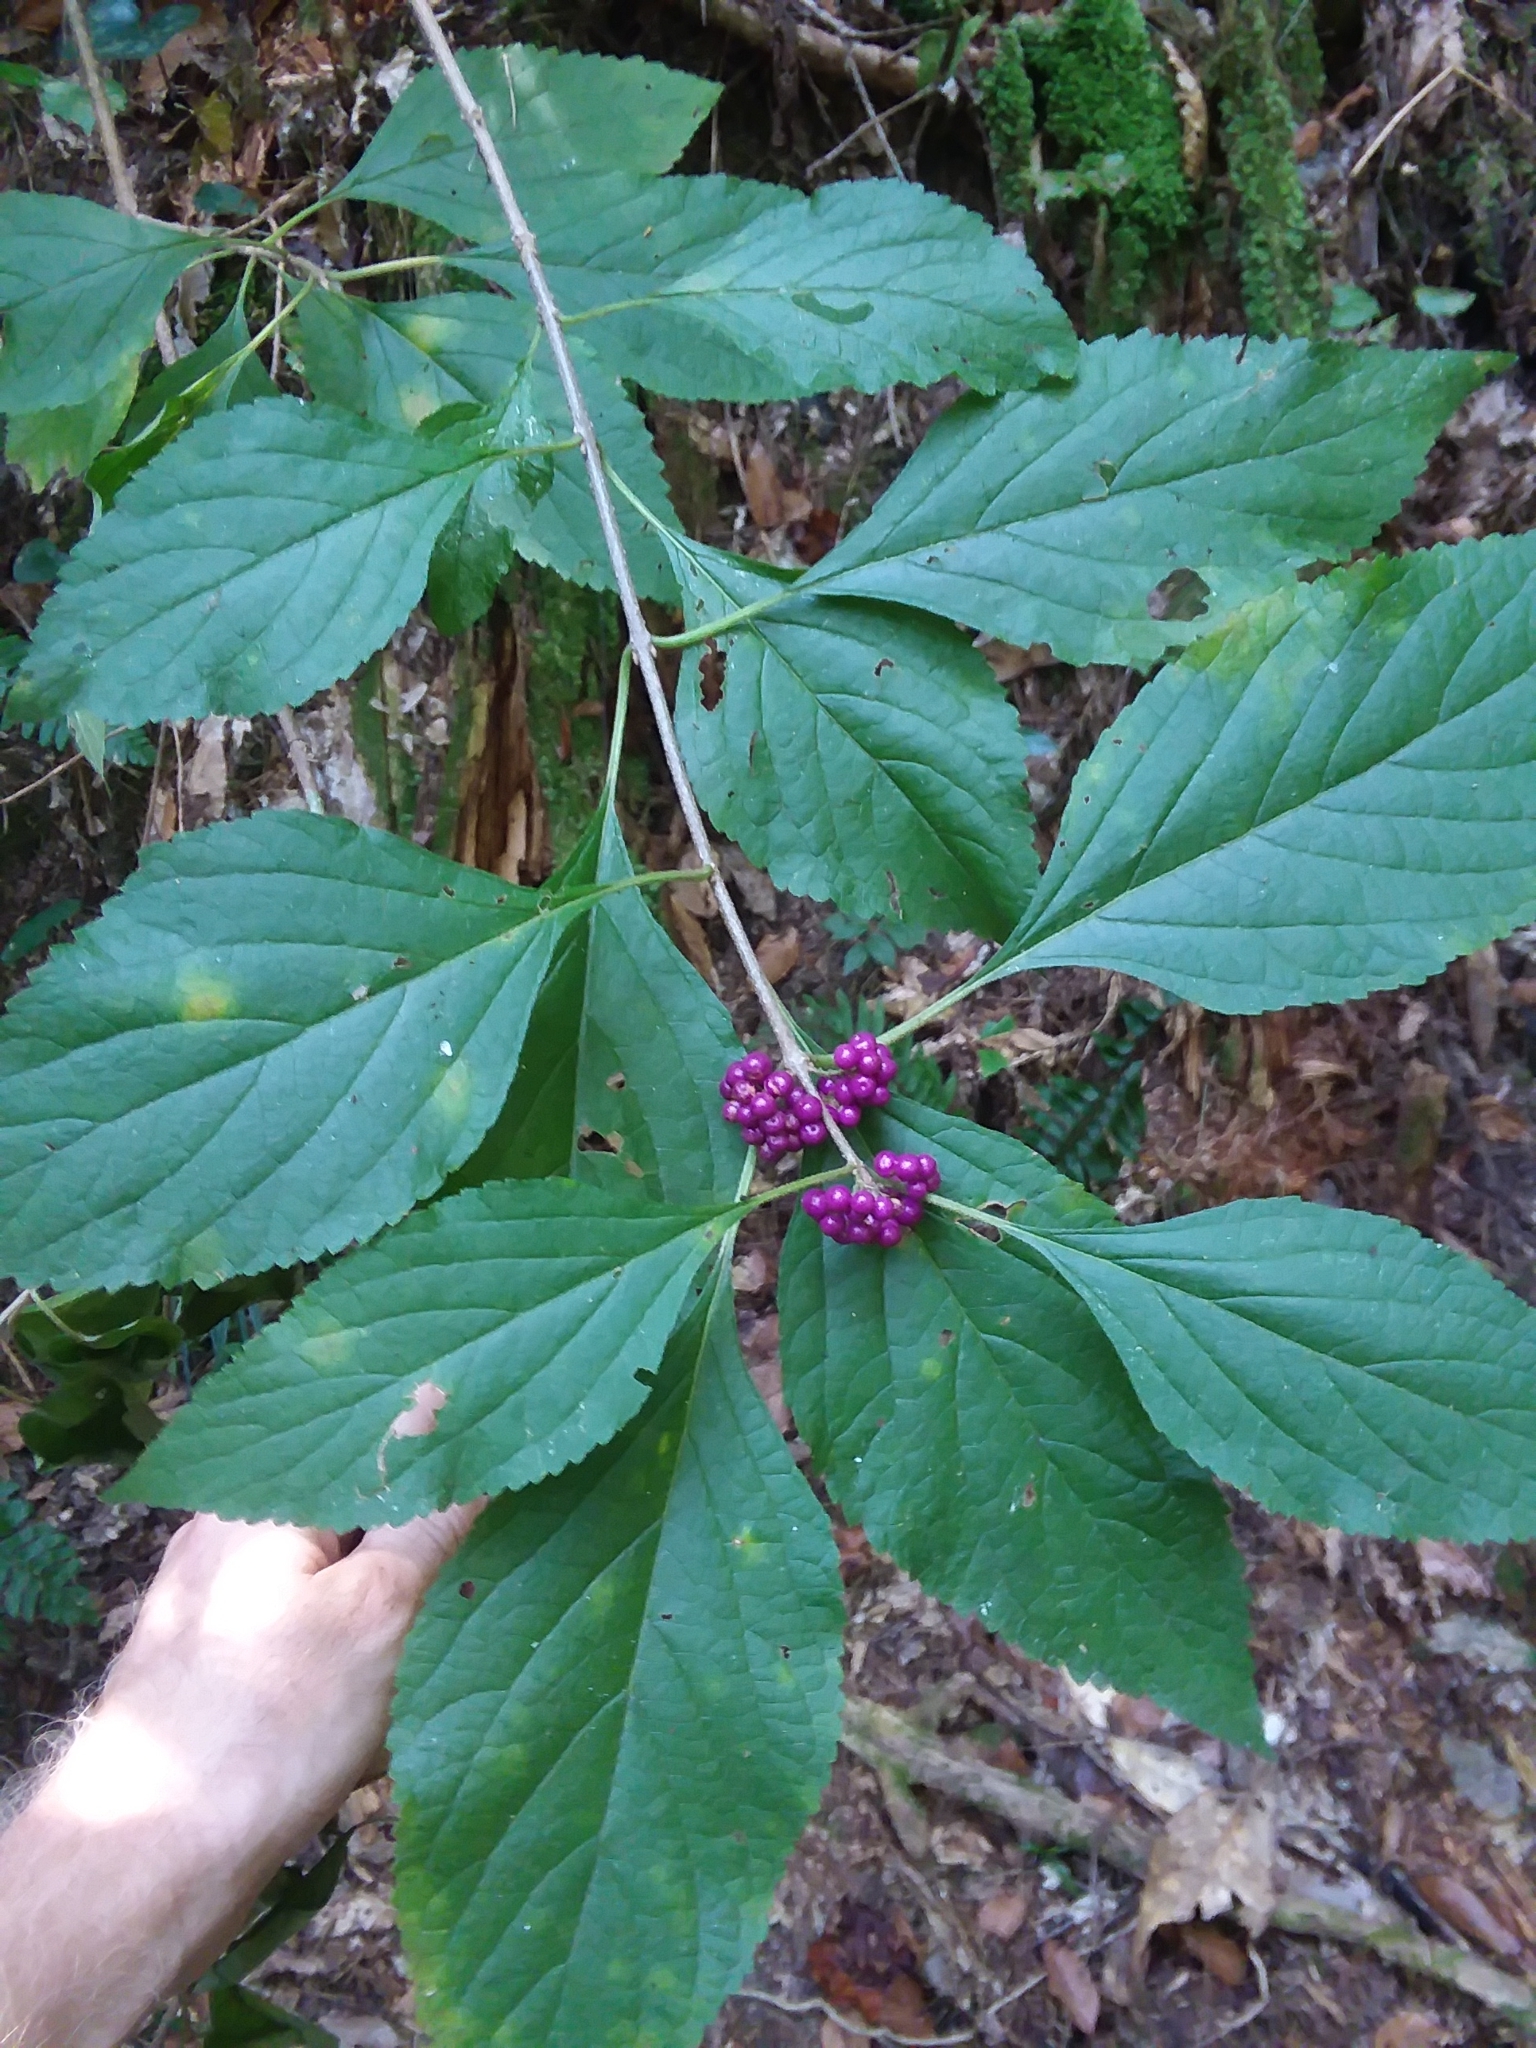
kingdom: Plantae
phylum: Tracheophyta
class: Magnoliopsida
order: Lamiales
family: Lamiaceae
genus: Callicarpa
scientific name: Callicarpa americana
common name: American beautyberry
